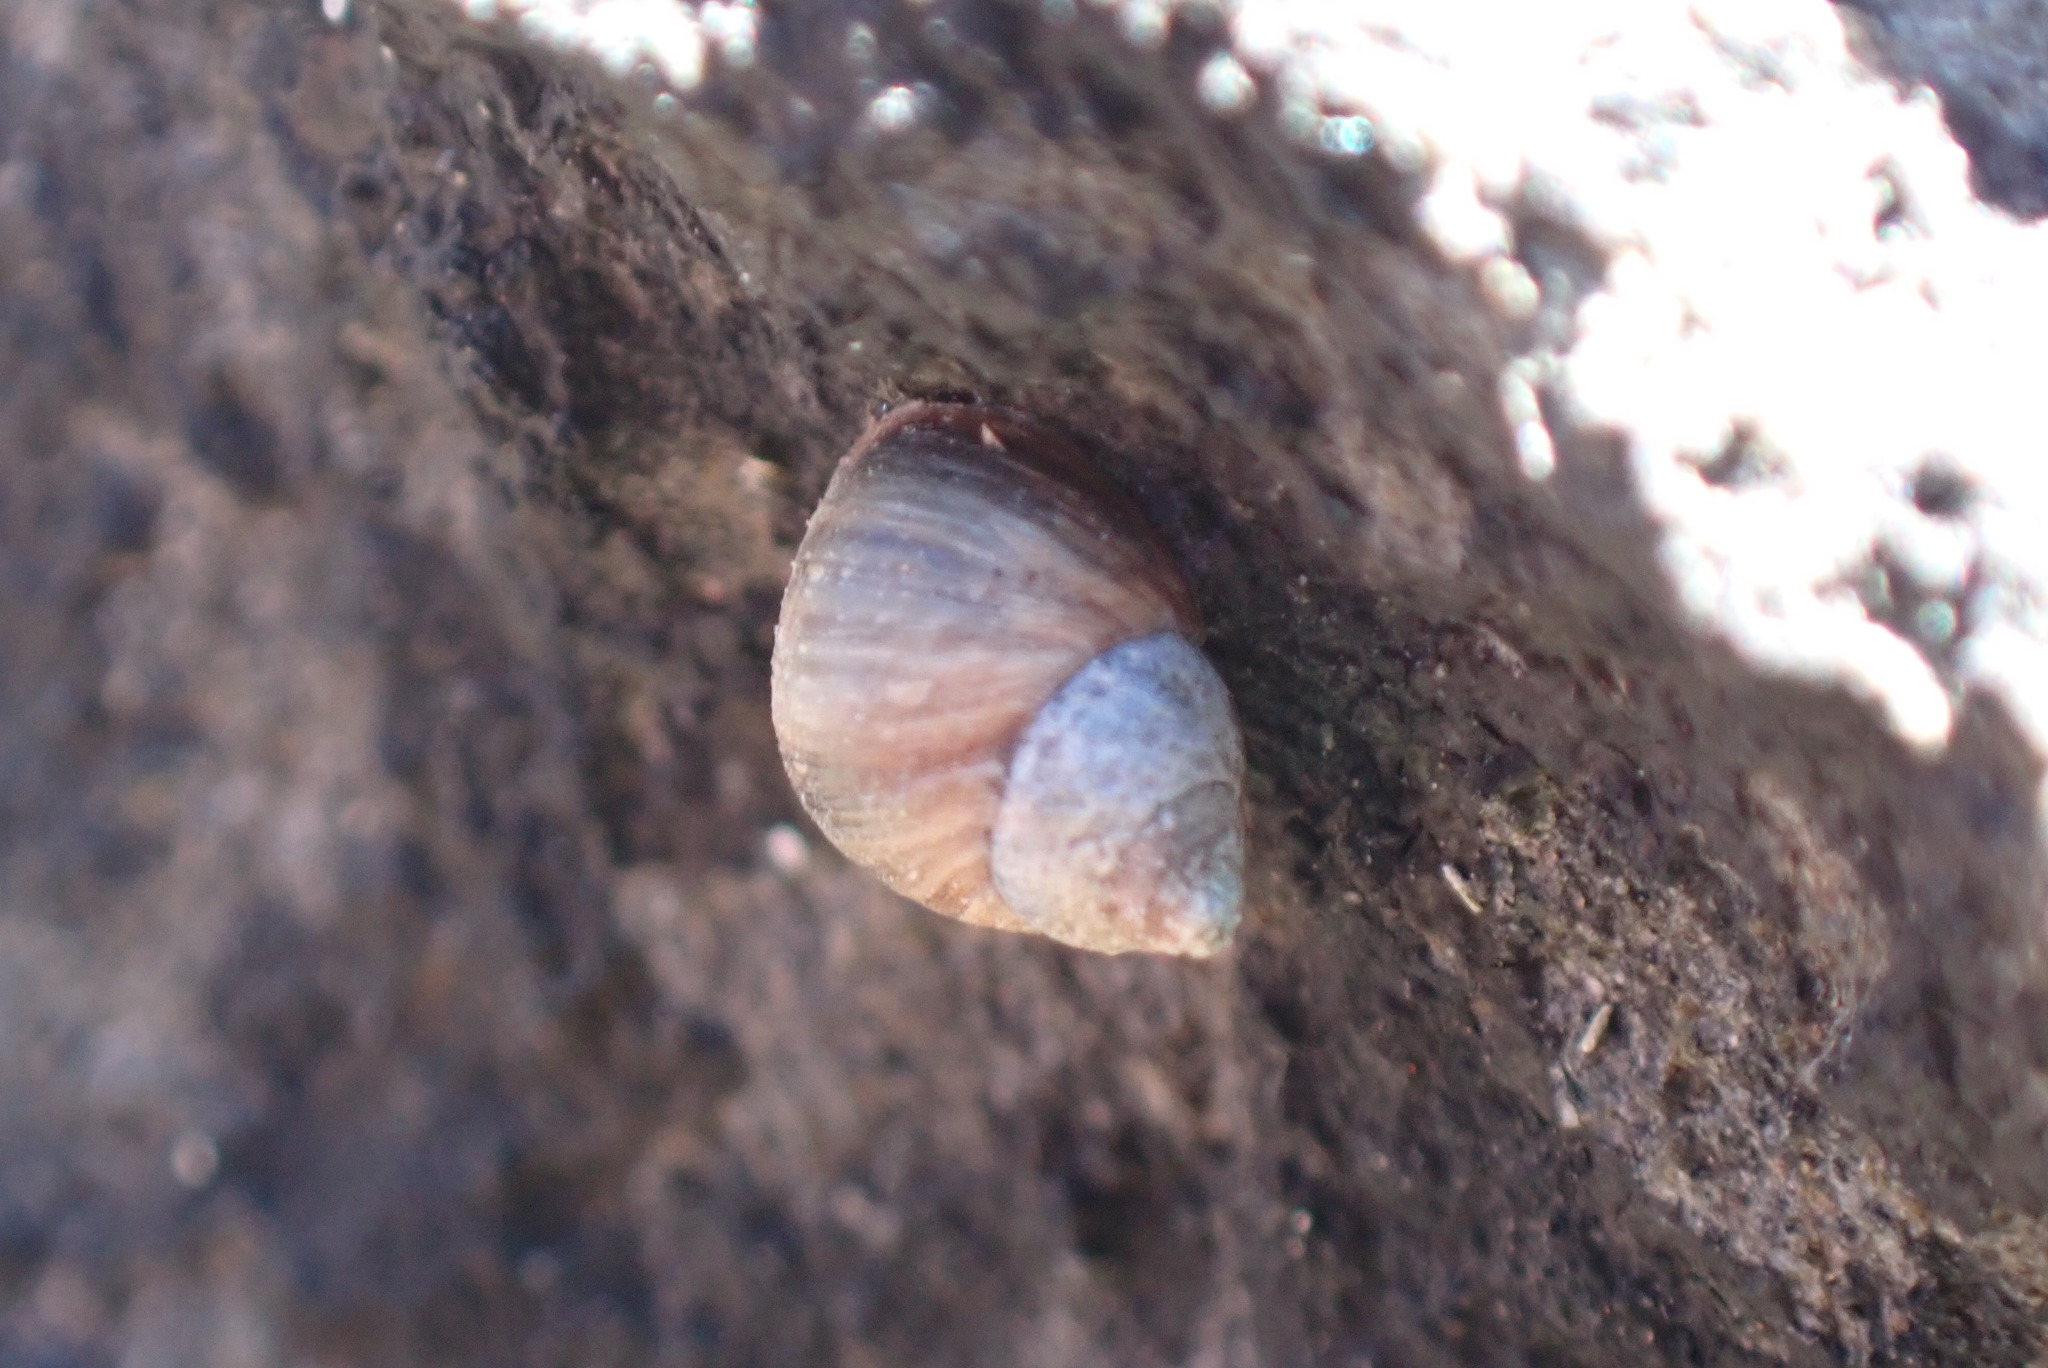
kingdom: Animalia
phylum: Mollusca
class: Gastropoda
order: Littorinimorpha
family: Littorinidae
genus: Austrolittorina
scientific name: Austrolittorina araucana
